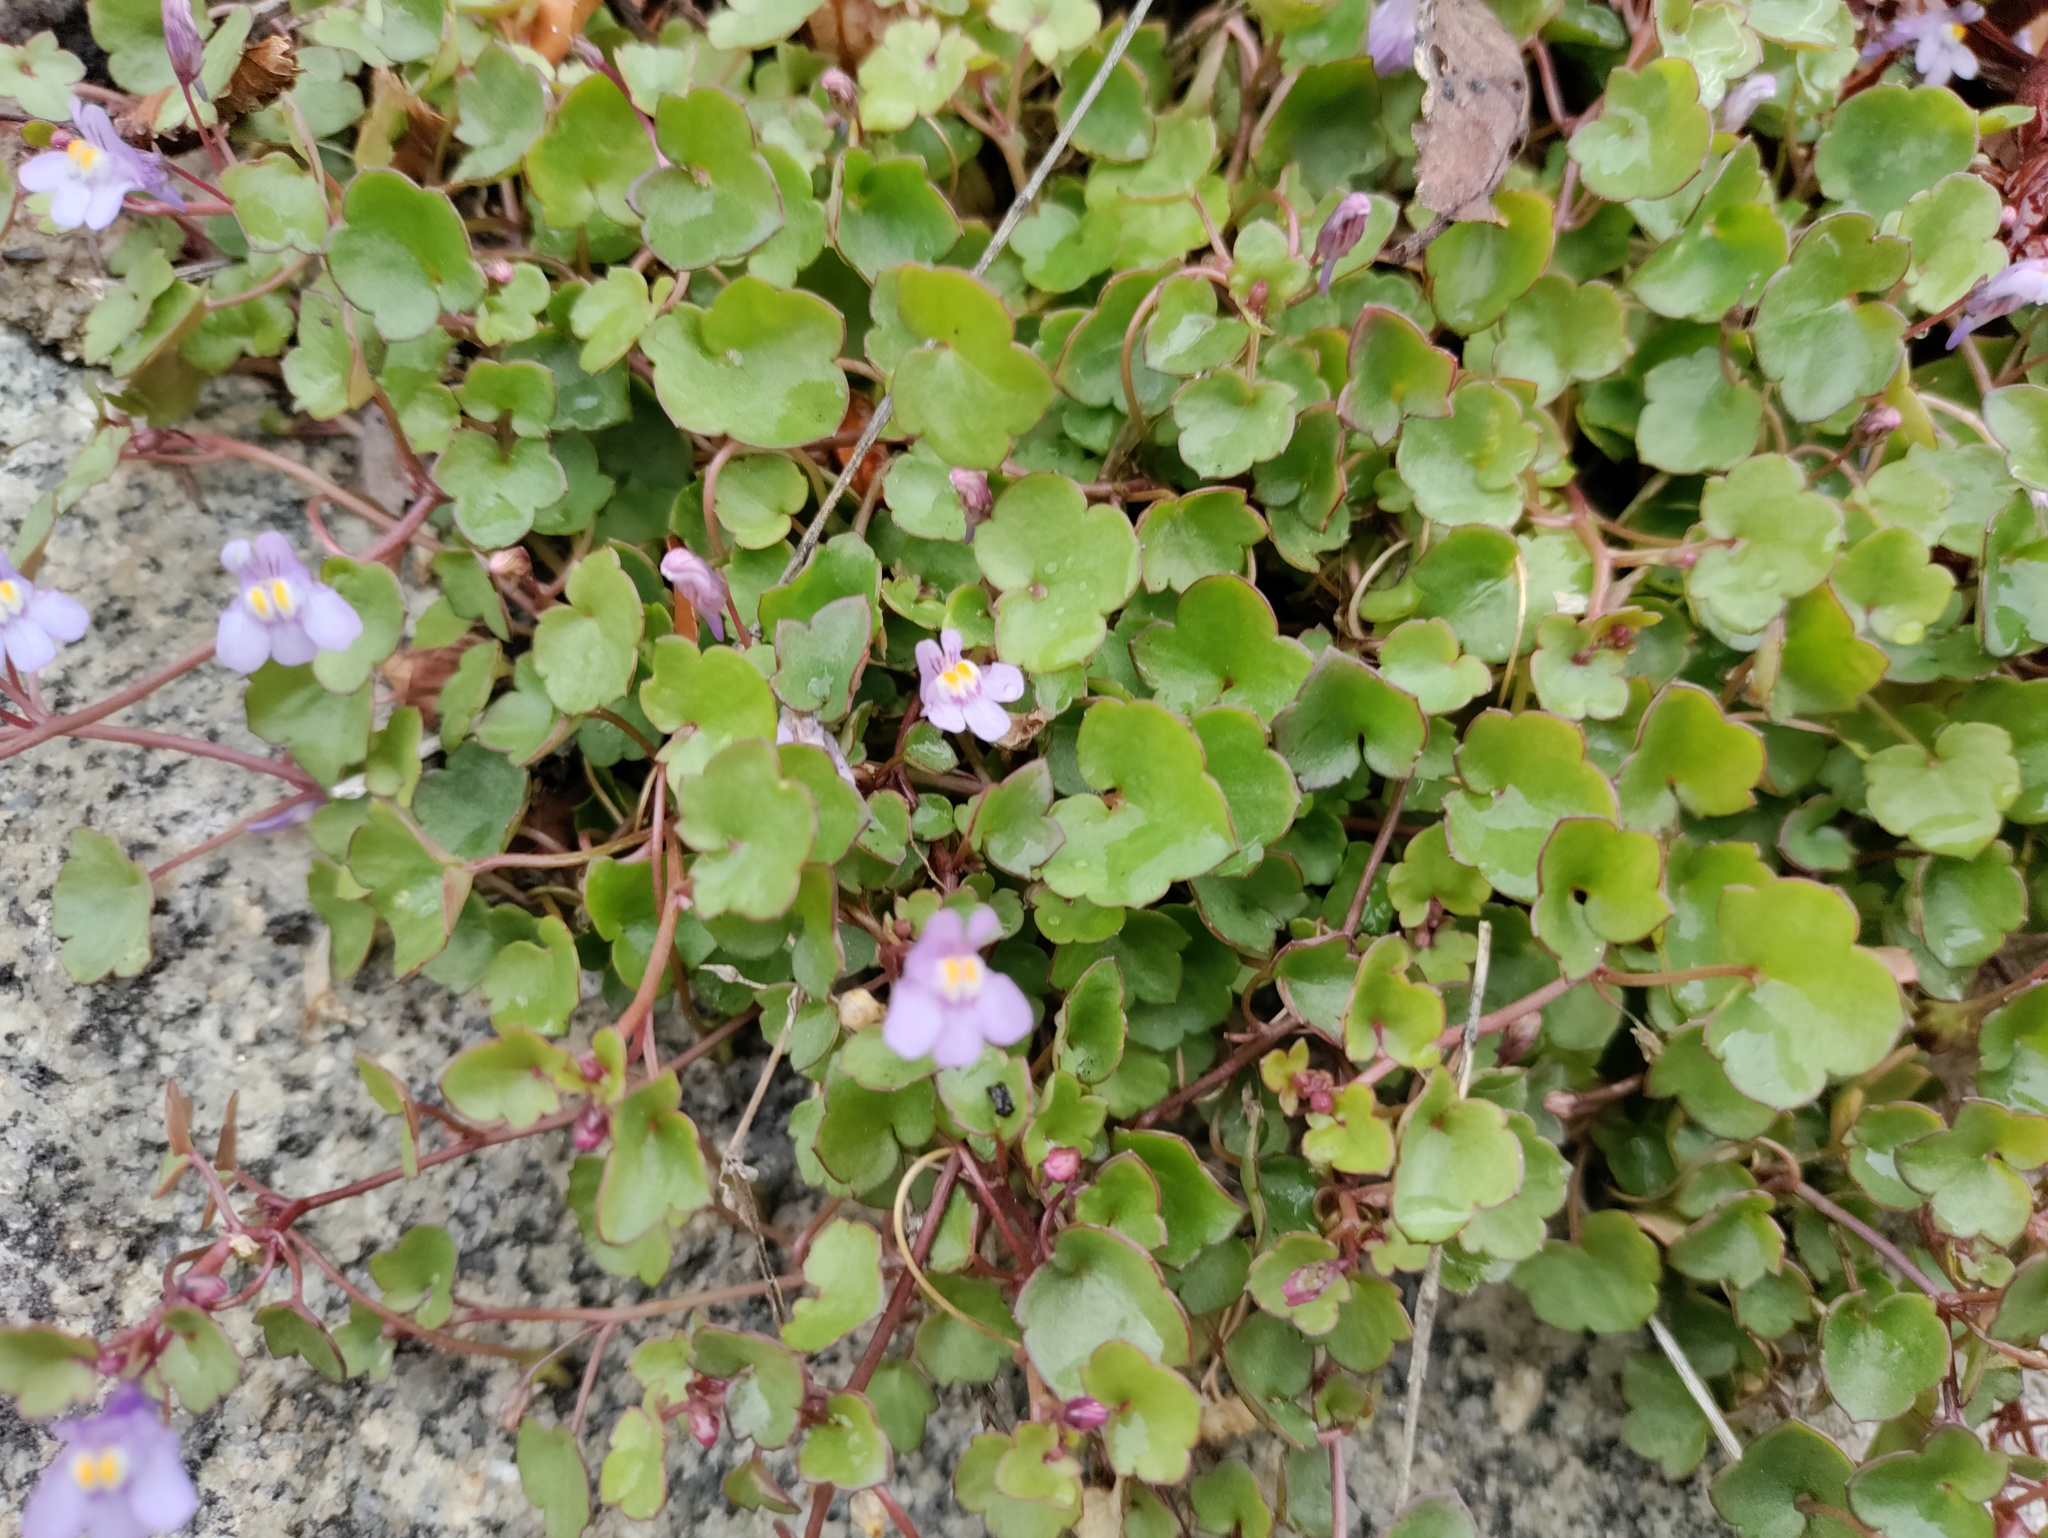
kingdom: Plantae
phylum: Tracheophyta
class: Magnoliopsida
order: Lamiales
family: Plantaginaceae
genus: Cymbalaria
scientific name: Cymbalaria muralis
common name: Ivy-leaved toadflax
